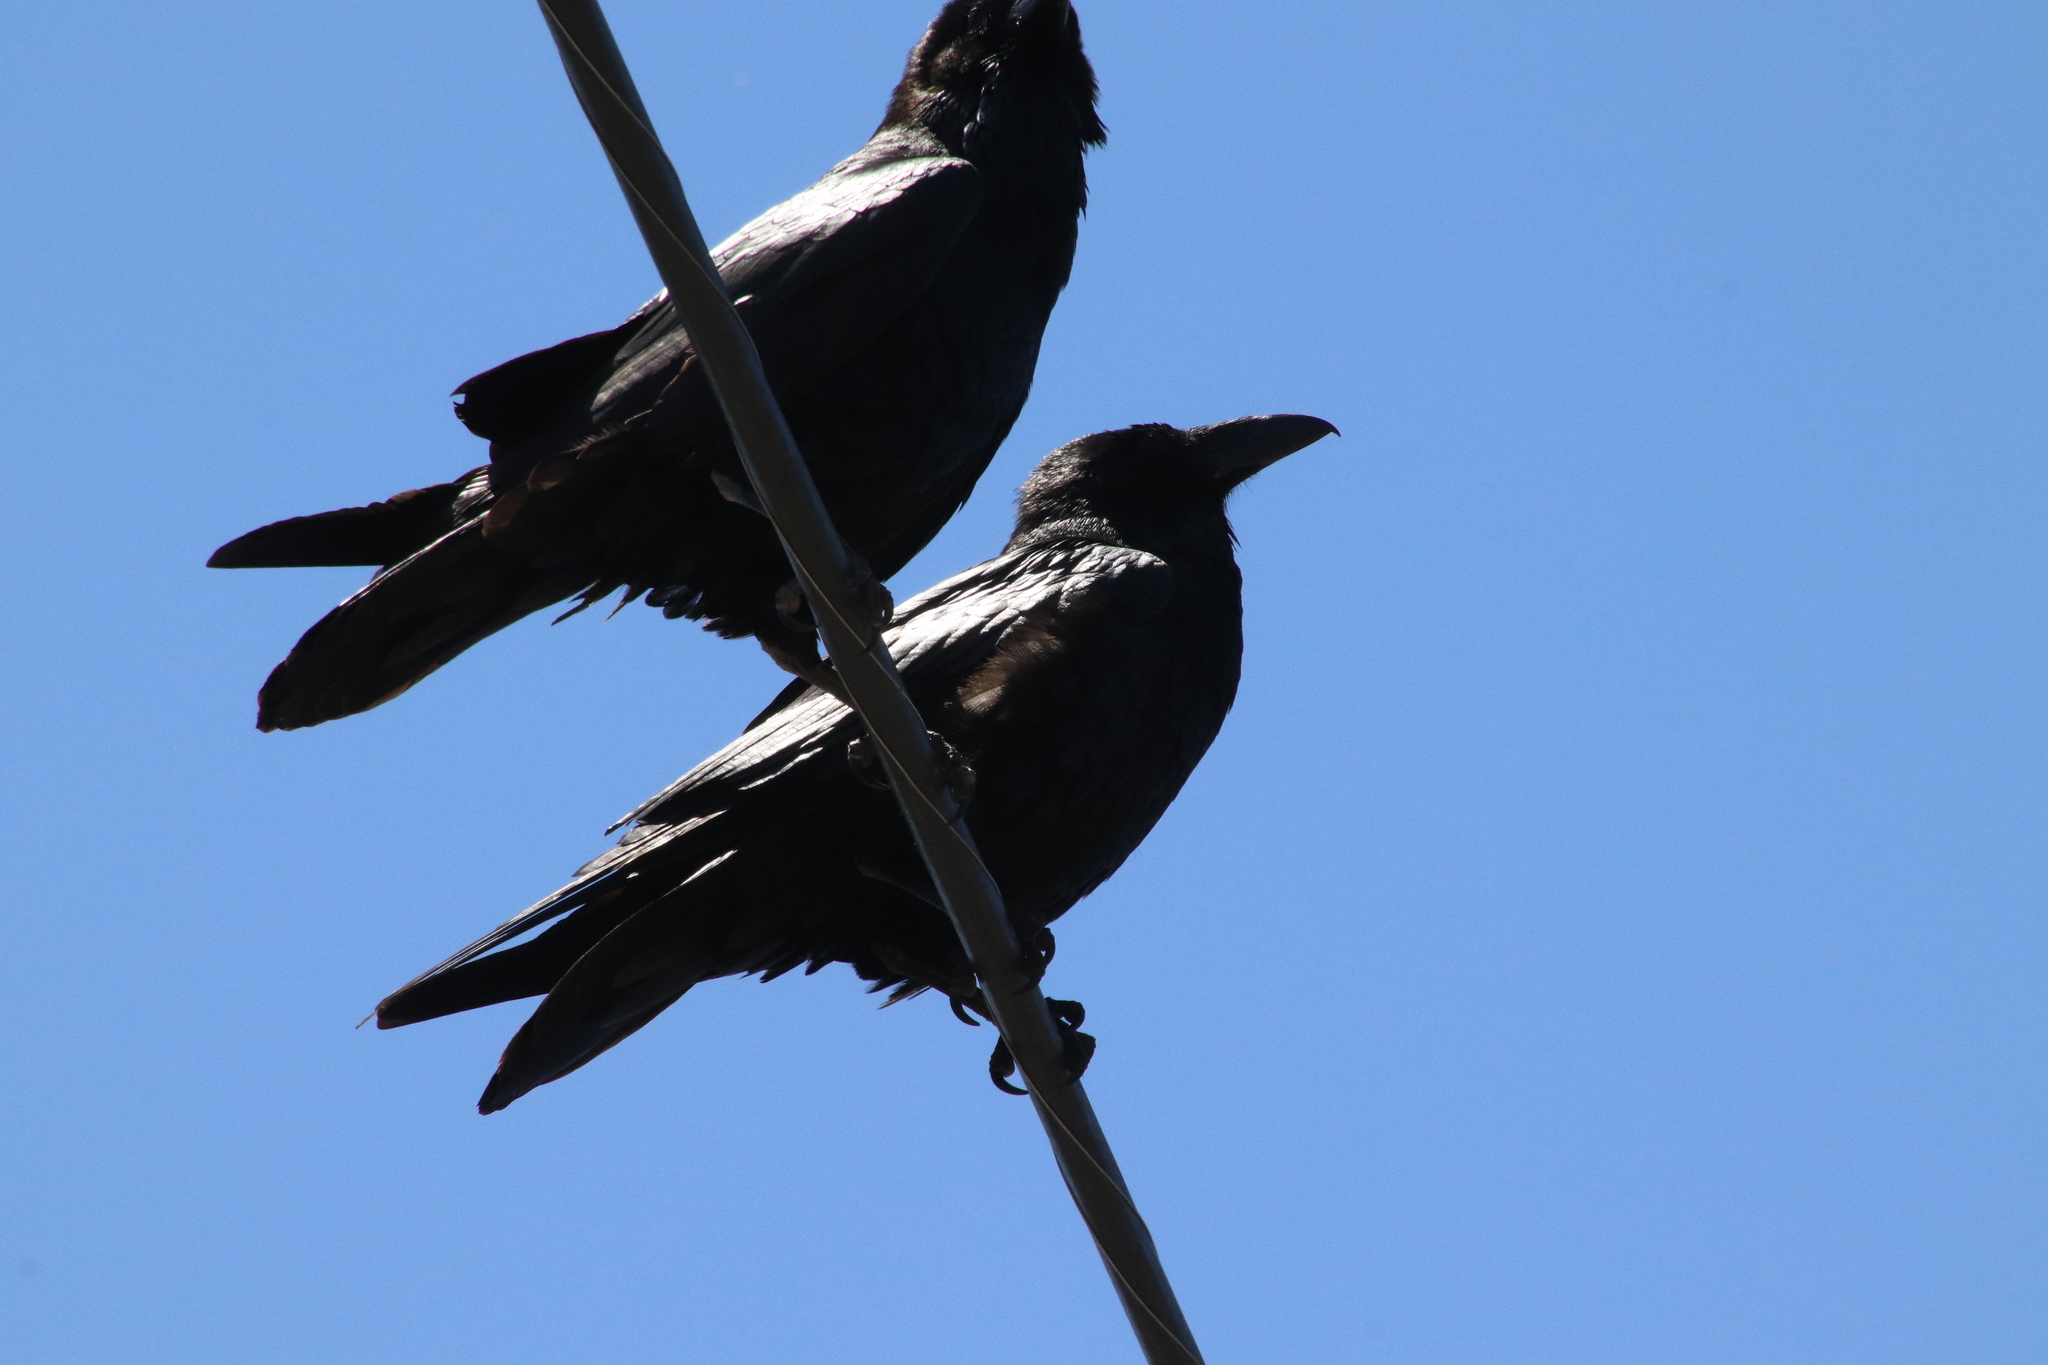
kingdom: Animalia
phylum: Chordata
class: Aves
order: Passeriformes
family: Corvidae
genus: Corvus
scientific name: Corvus corax
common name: Common raven
